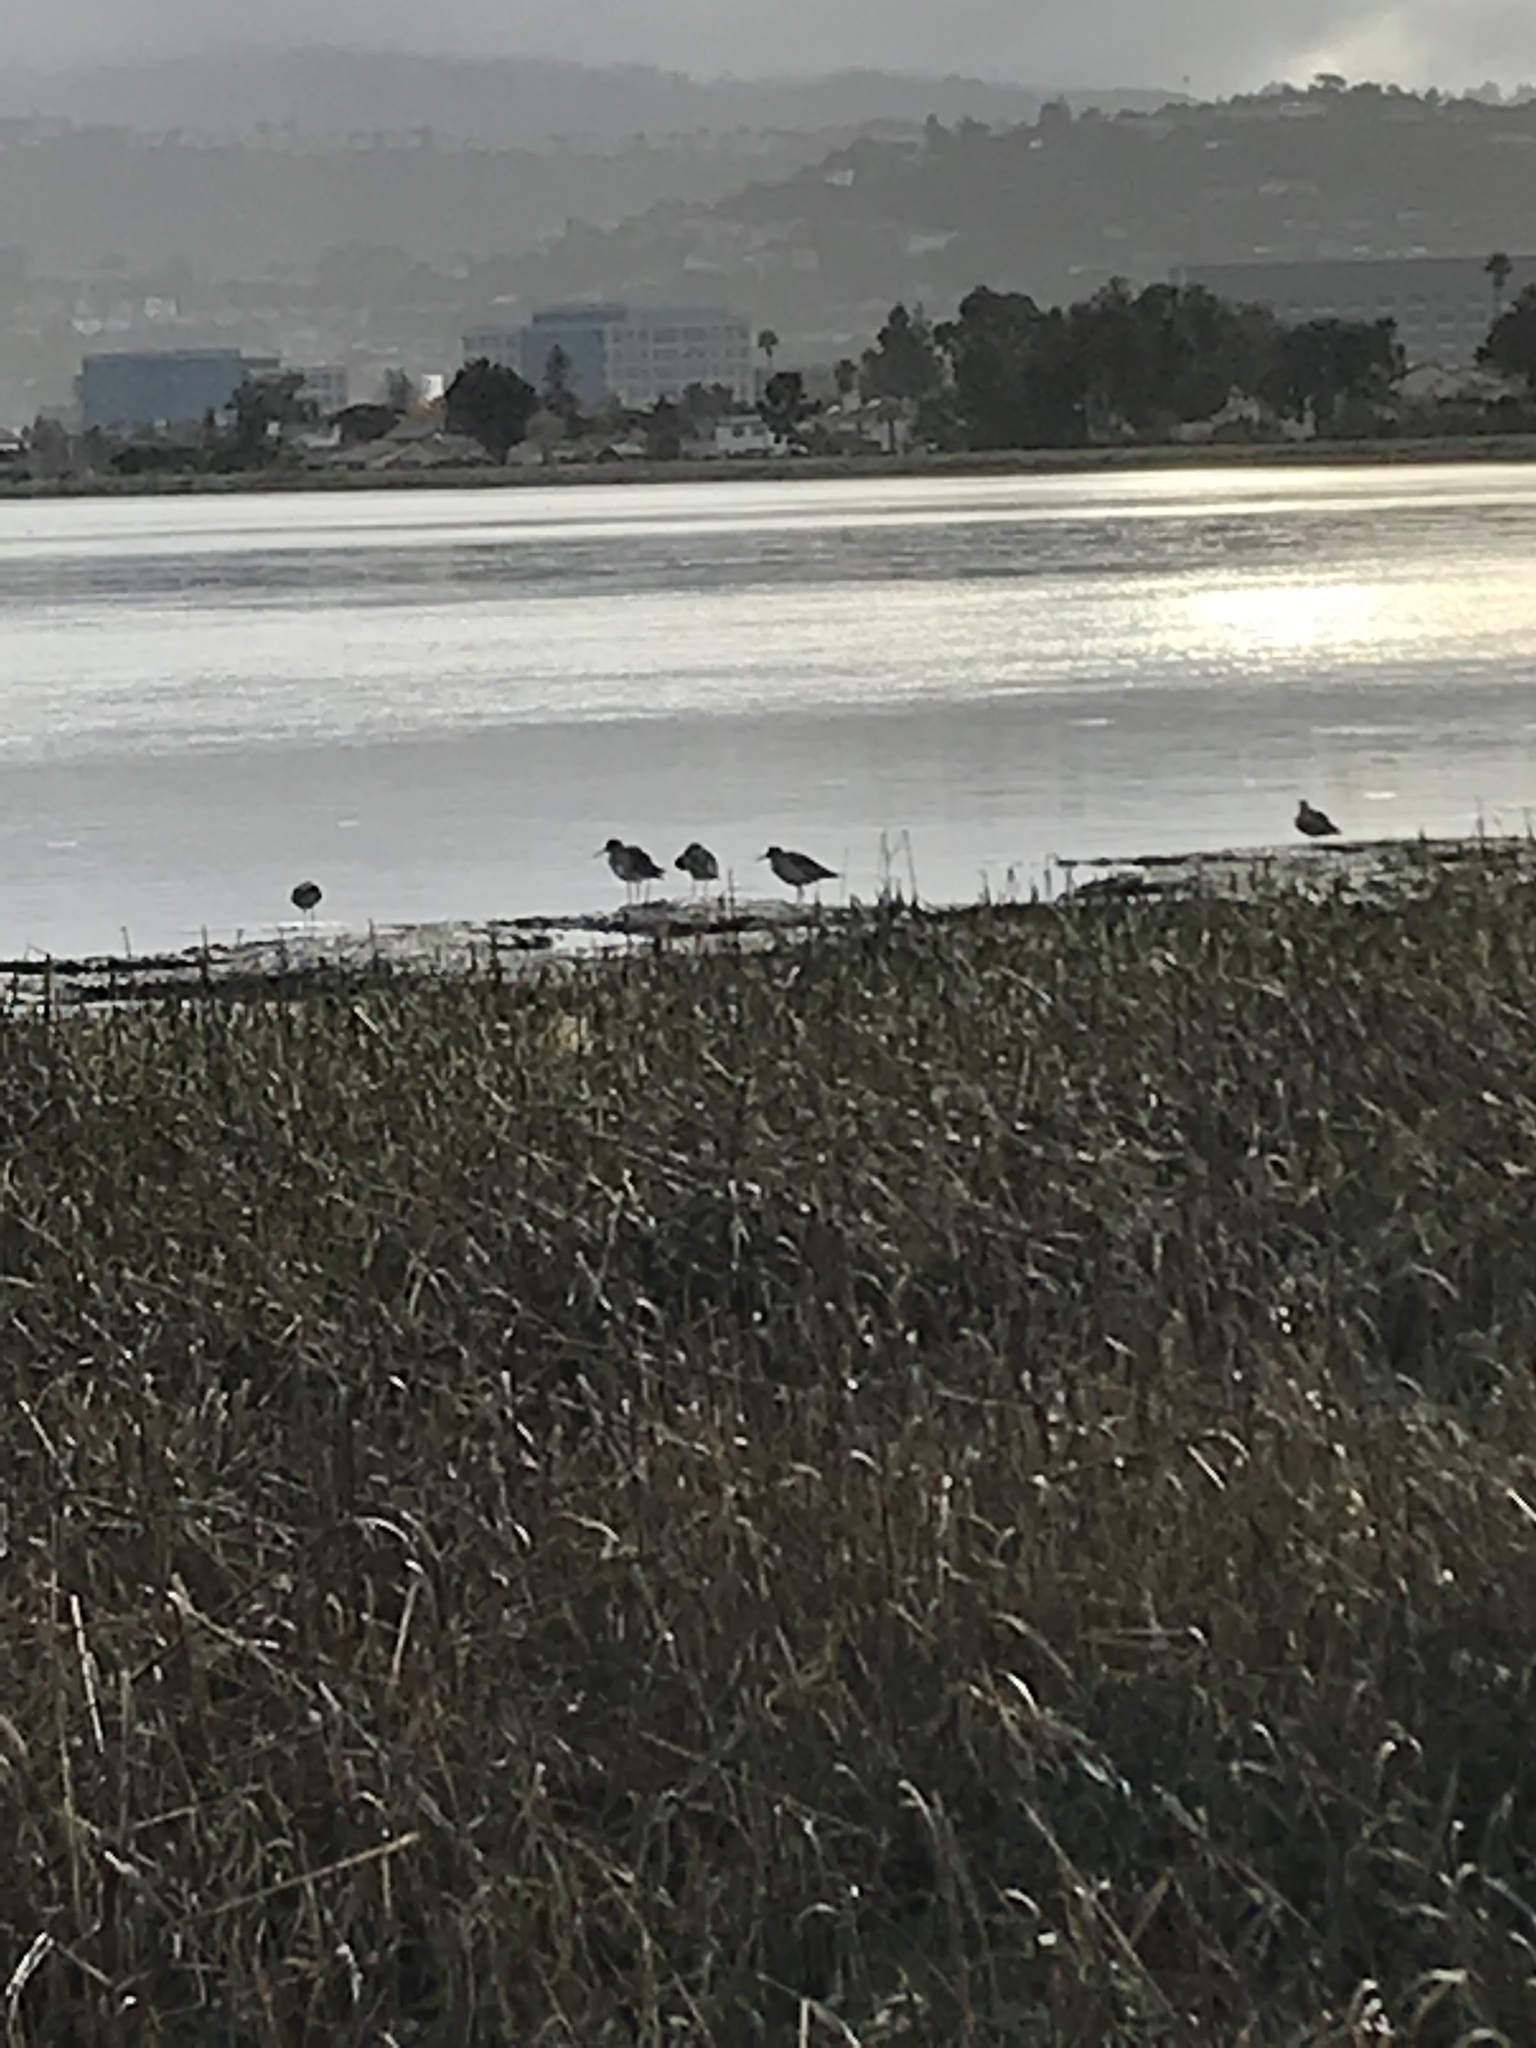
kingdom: Animalia
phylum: Chordata
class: Aves
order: Charadriiformes
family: Scolopacidae
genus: Tringa
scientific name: Tringa semipalmata
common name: Willet
